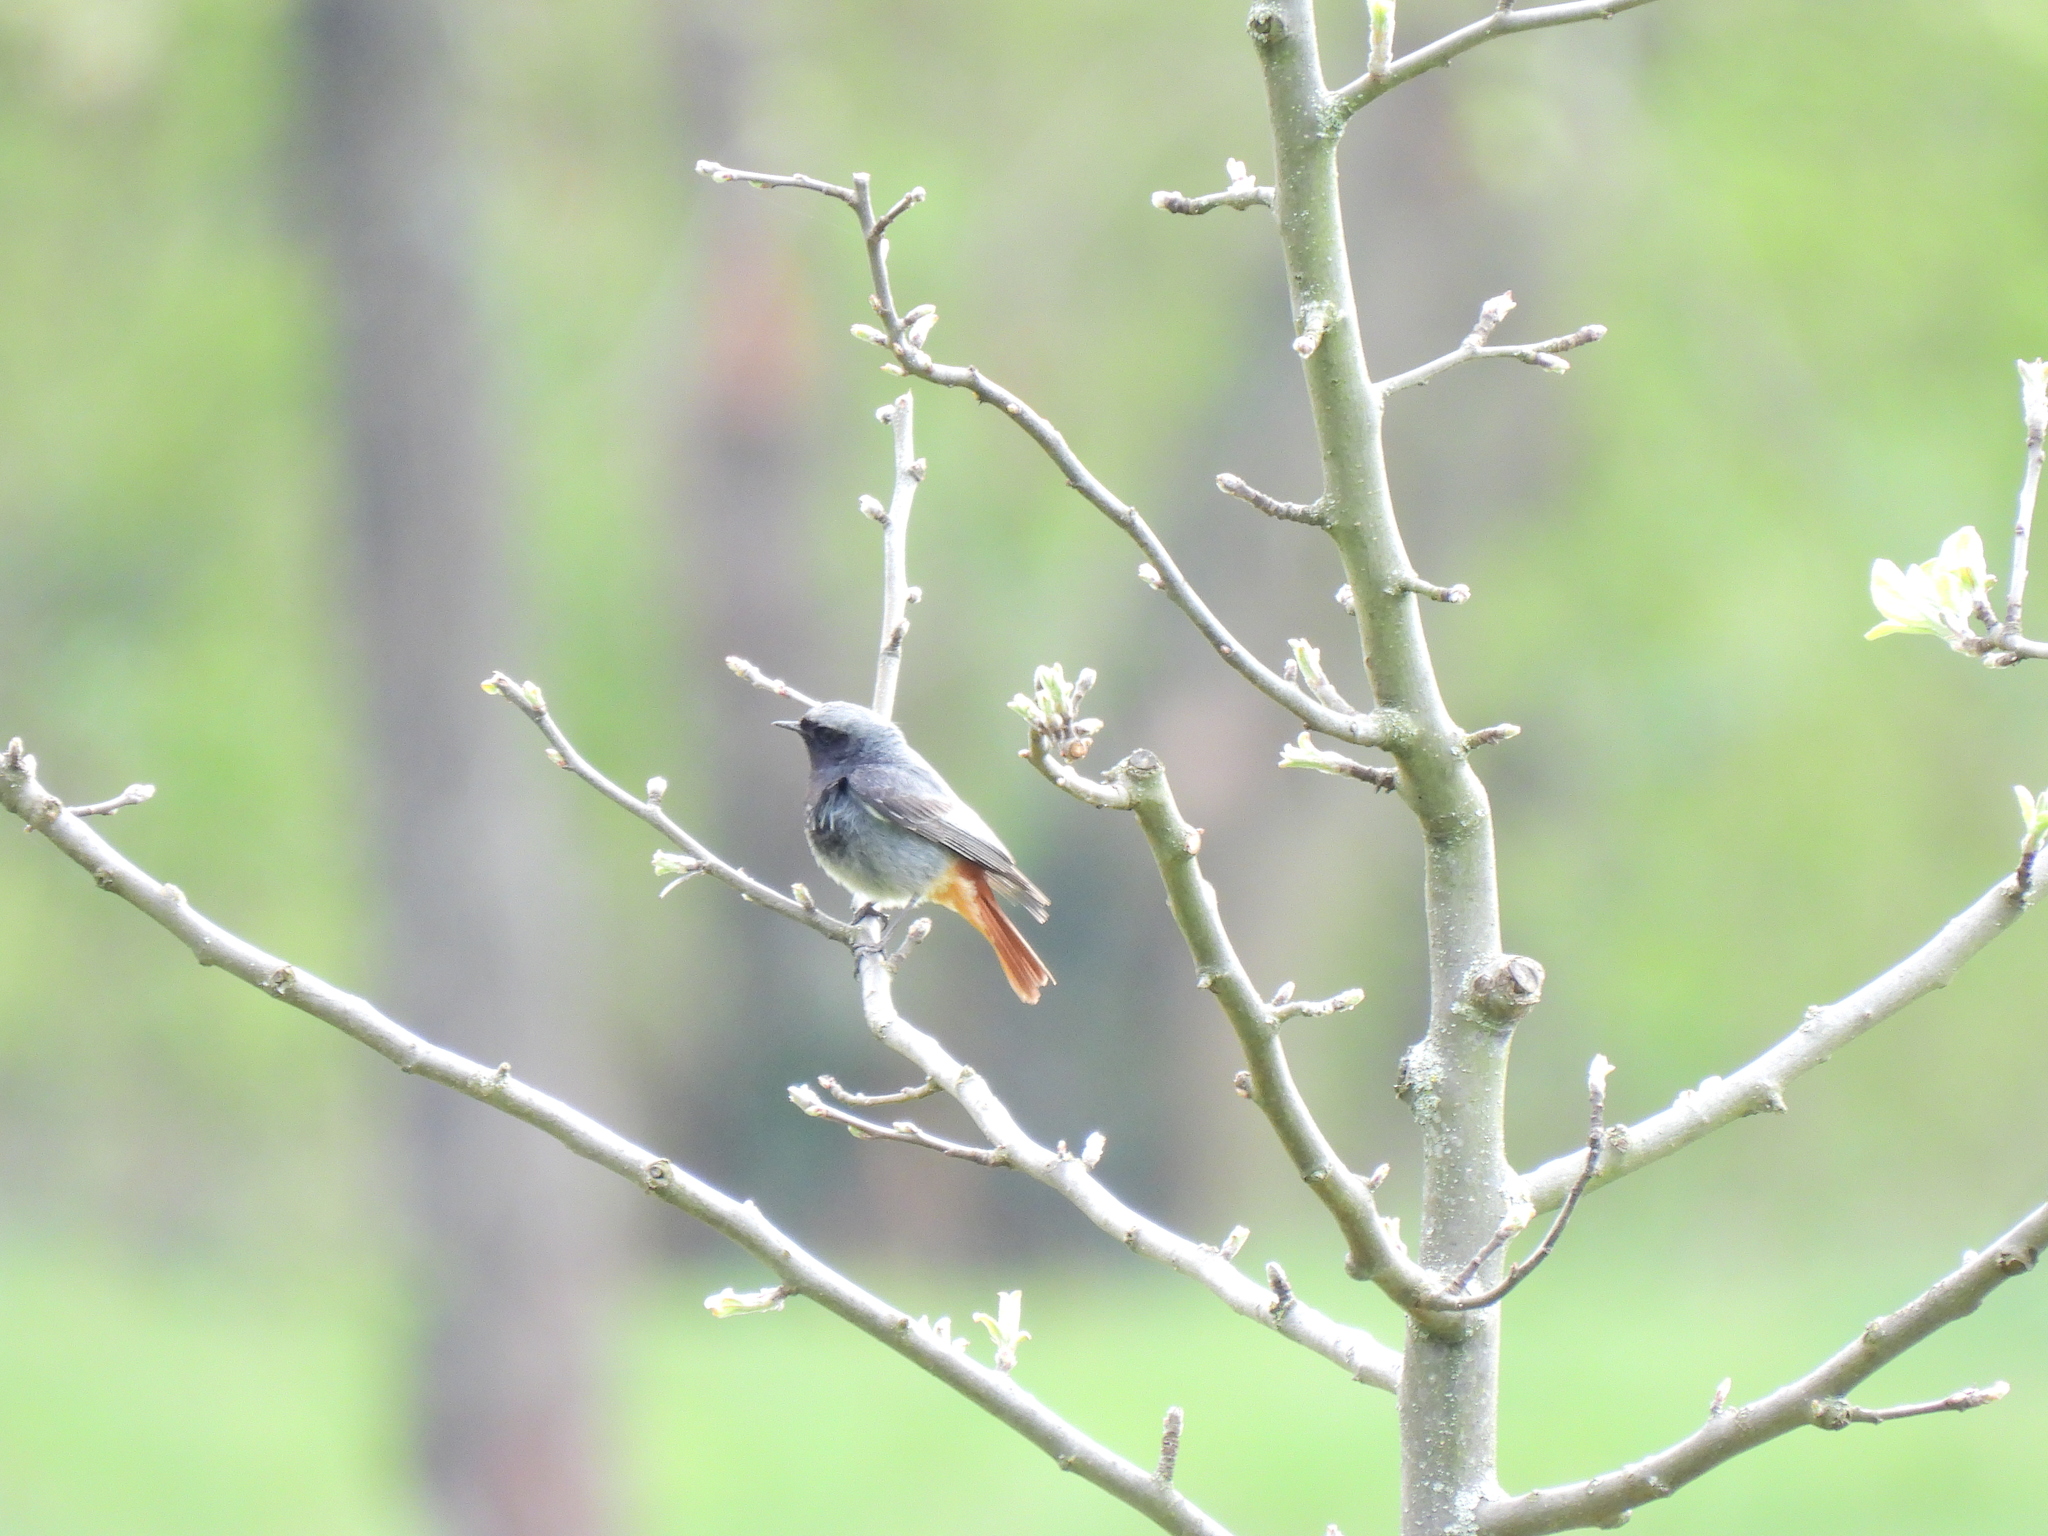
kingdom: Animalia
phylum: Chordata
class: Aves
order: Passeriformes
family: Muscicapidae
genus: Phoenicurus
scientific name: Phoenicurus ochruros
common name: Black redstart
